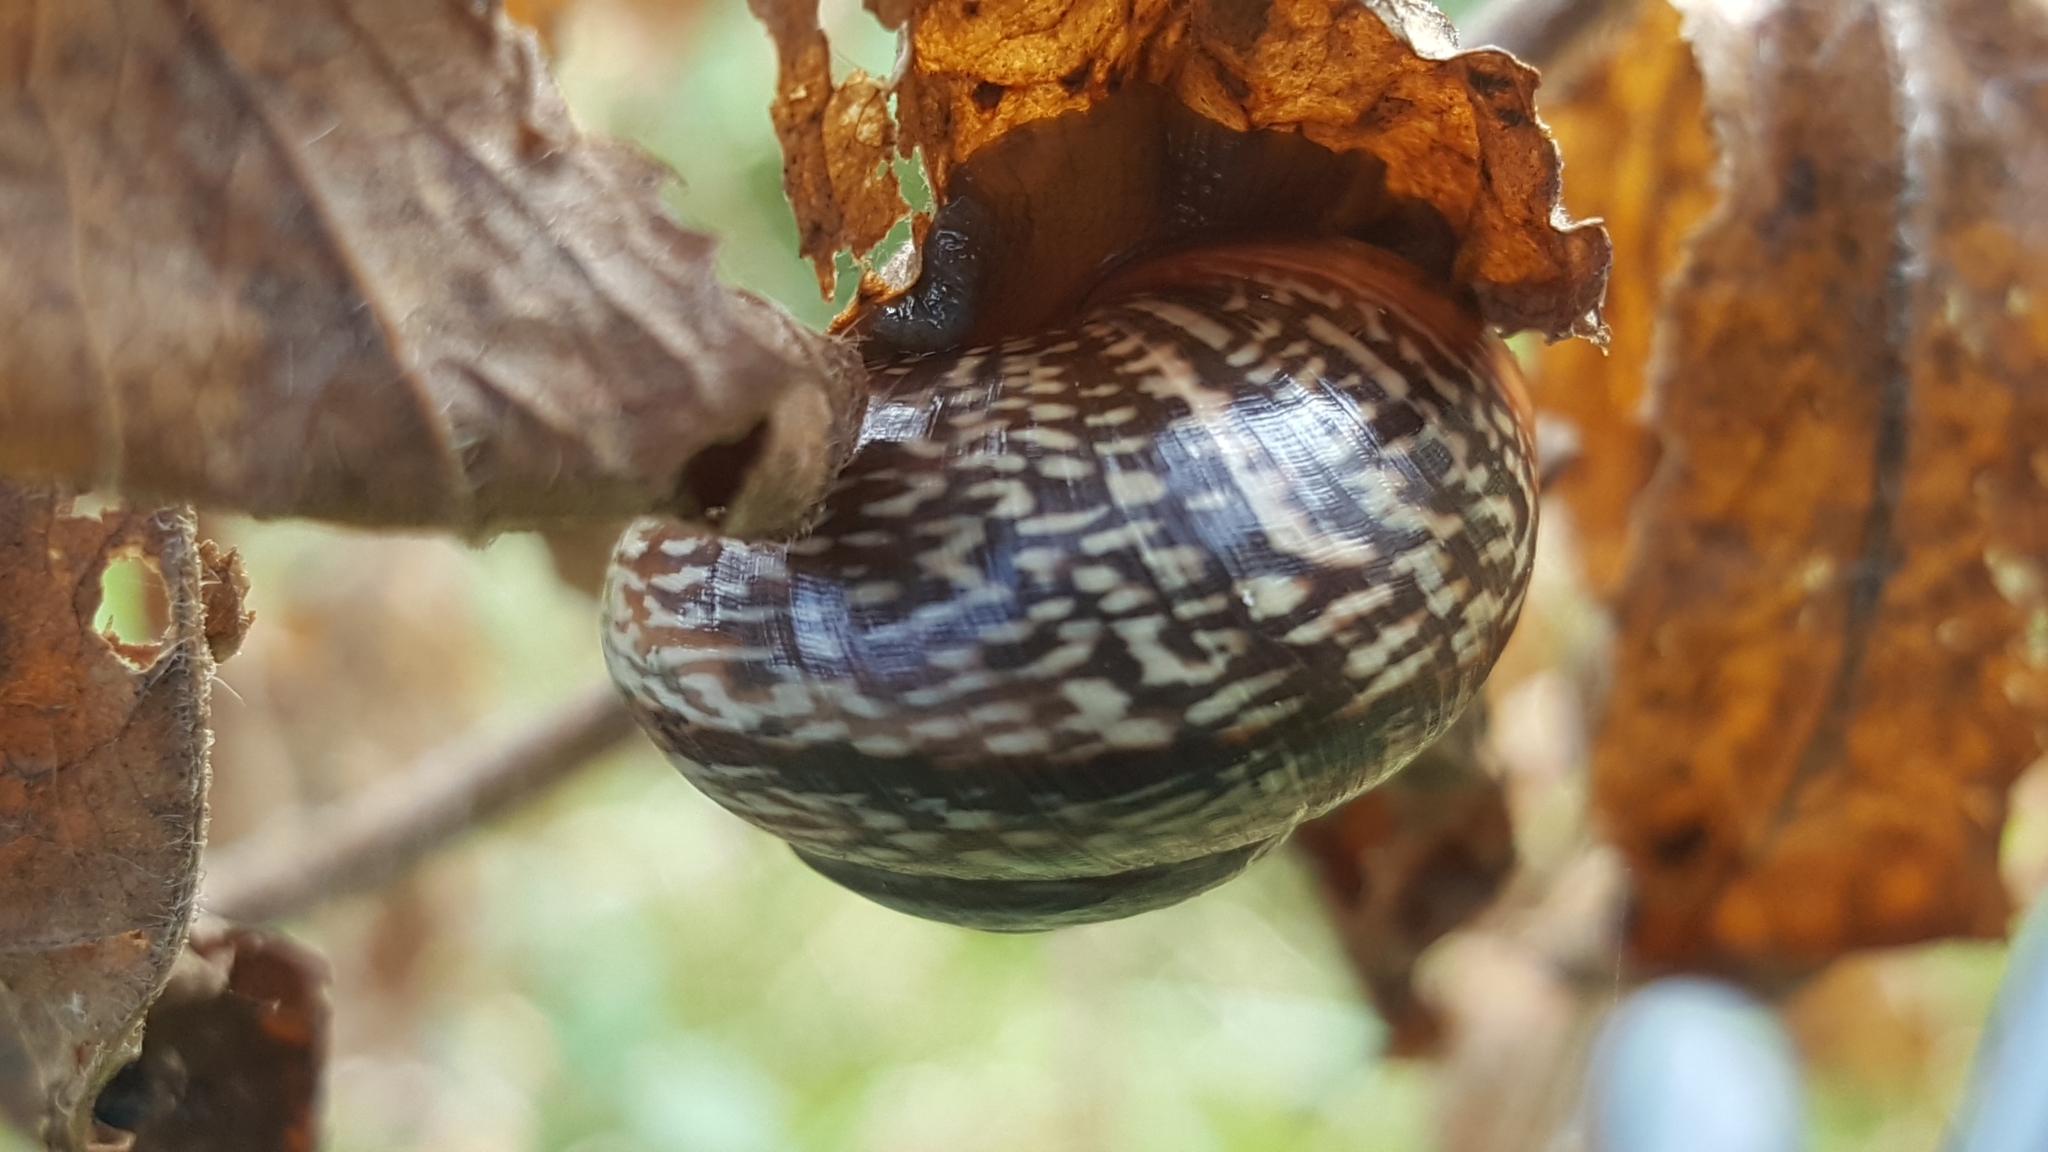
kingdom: Animalia
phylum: Mollusca
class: Gastropoda
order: Stylommatophora
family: Helicidae
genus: Arianta
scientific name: Arianta arbustorum
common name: Copse snail
